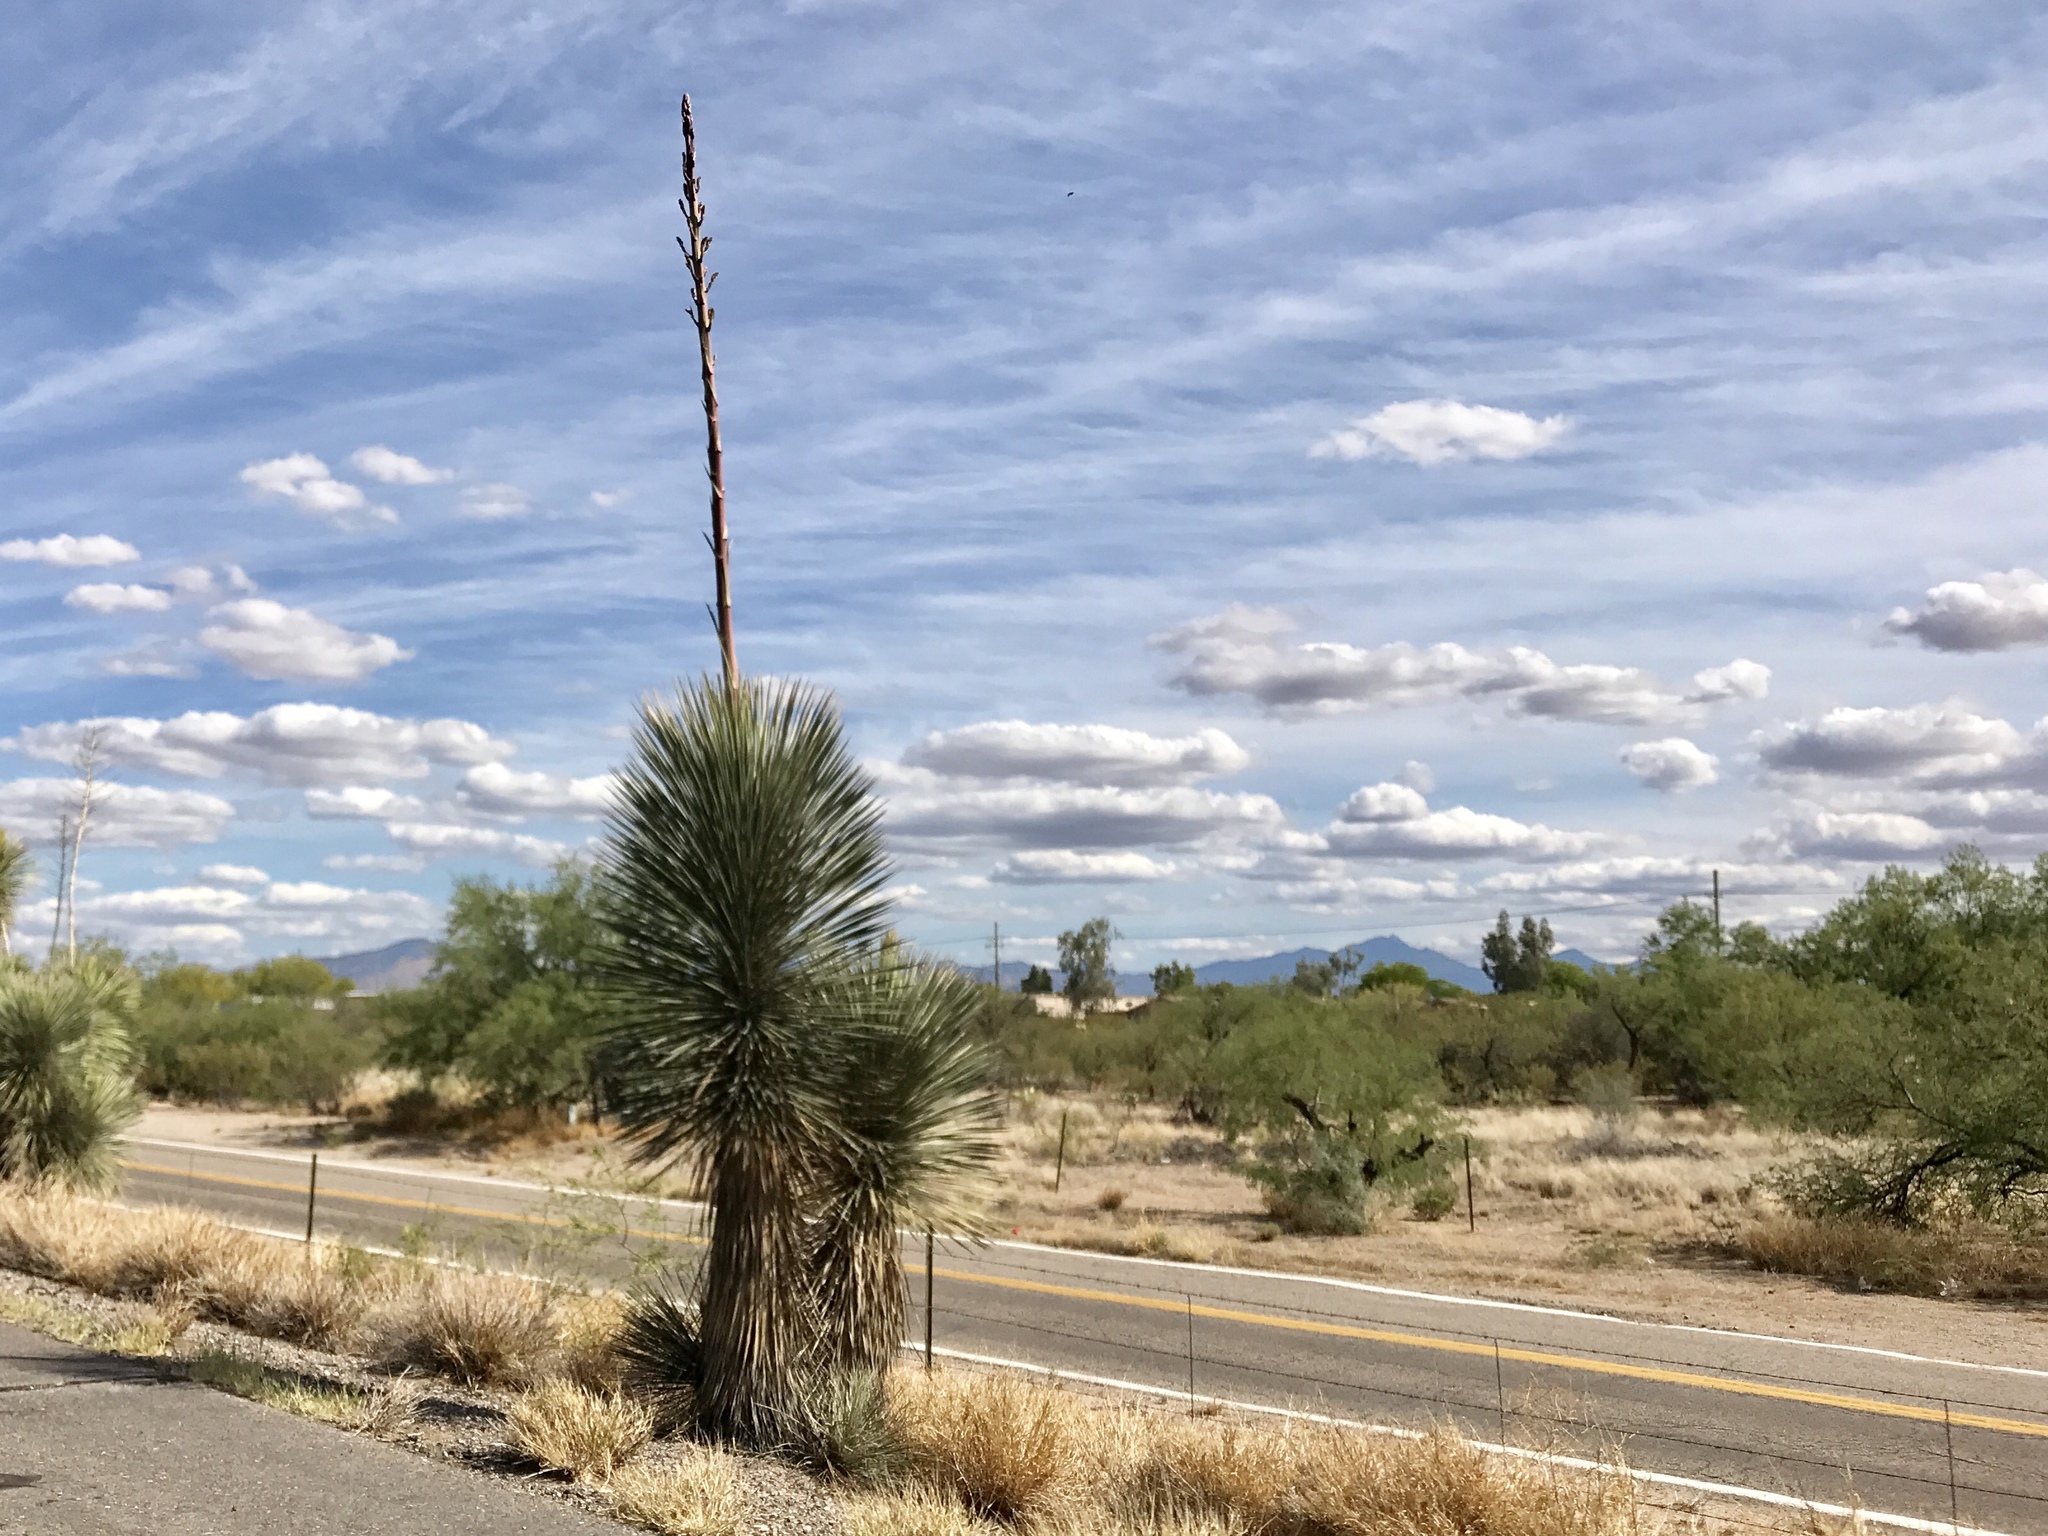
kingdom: Plantae
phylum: Tracheophyta
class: Liliopsida
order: Asparagales
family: Asparagaceae
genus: Yucca
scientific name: Yucca elata
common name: Palmella
